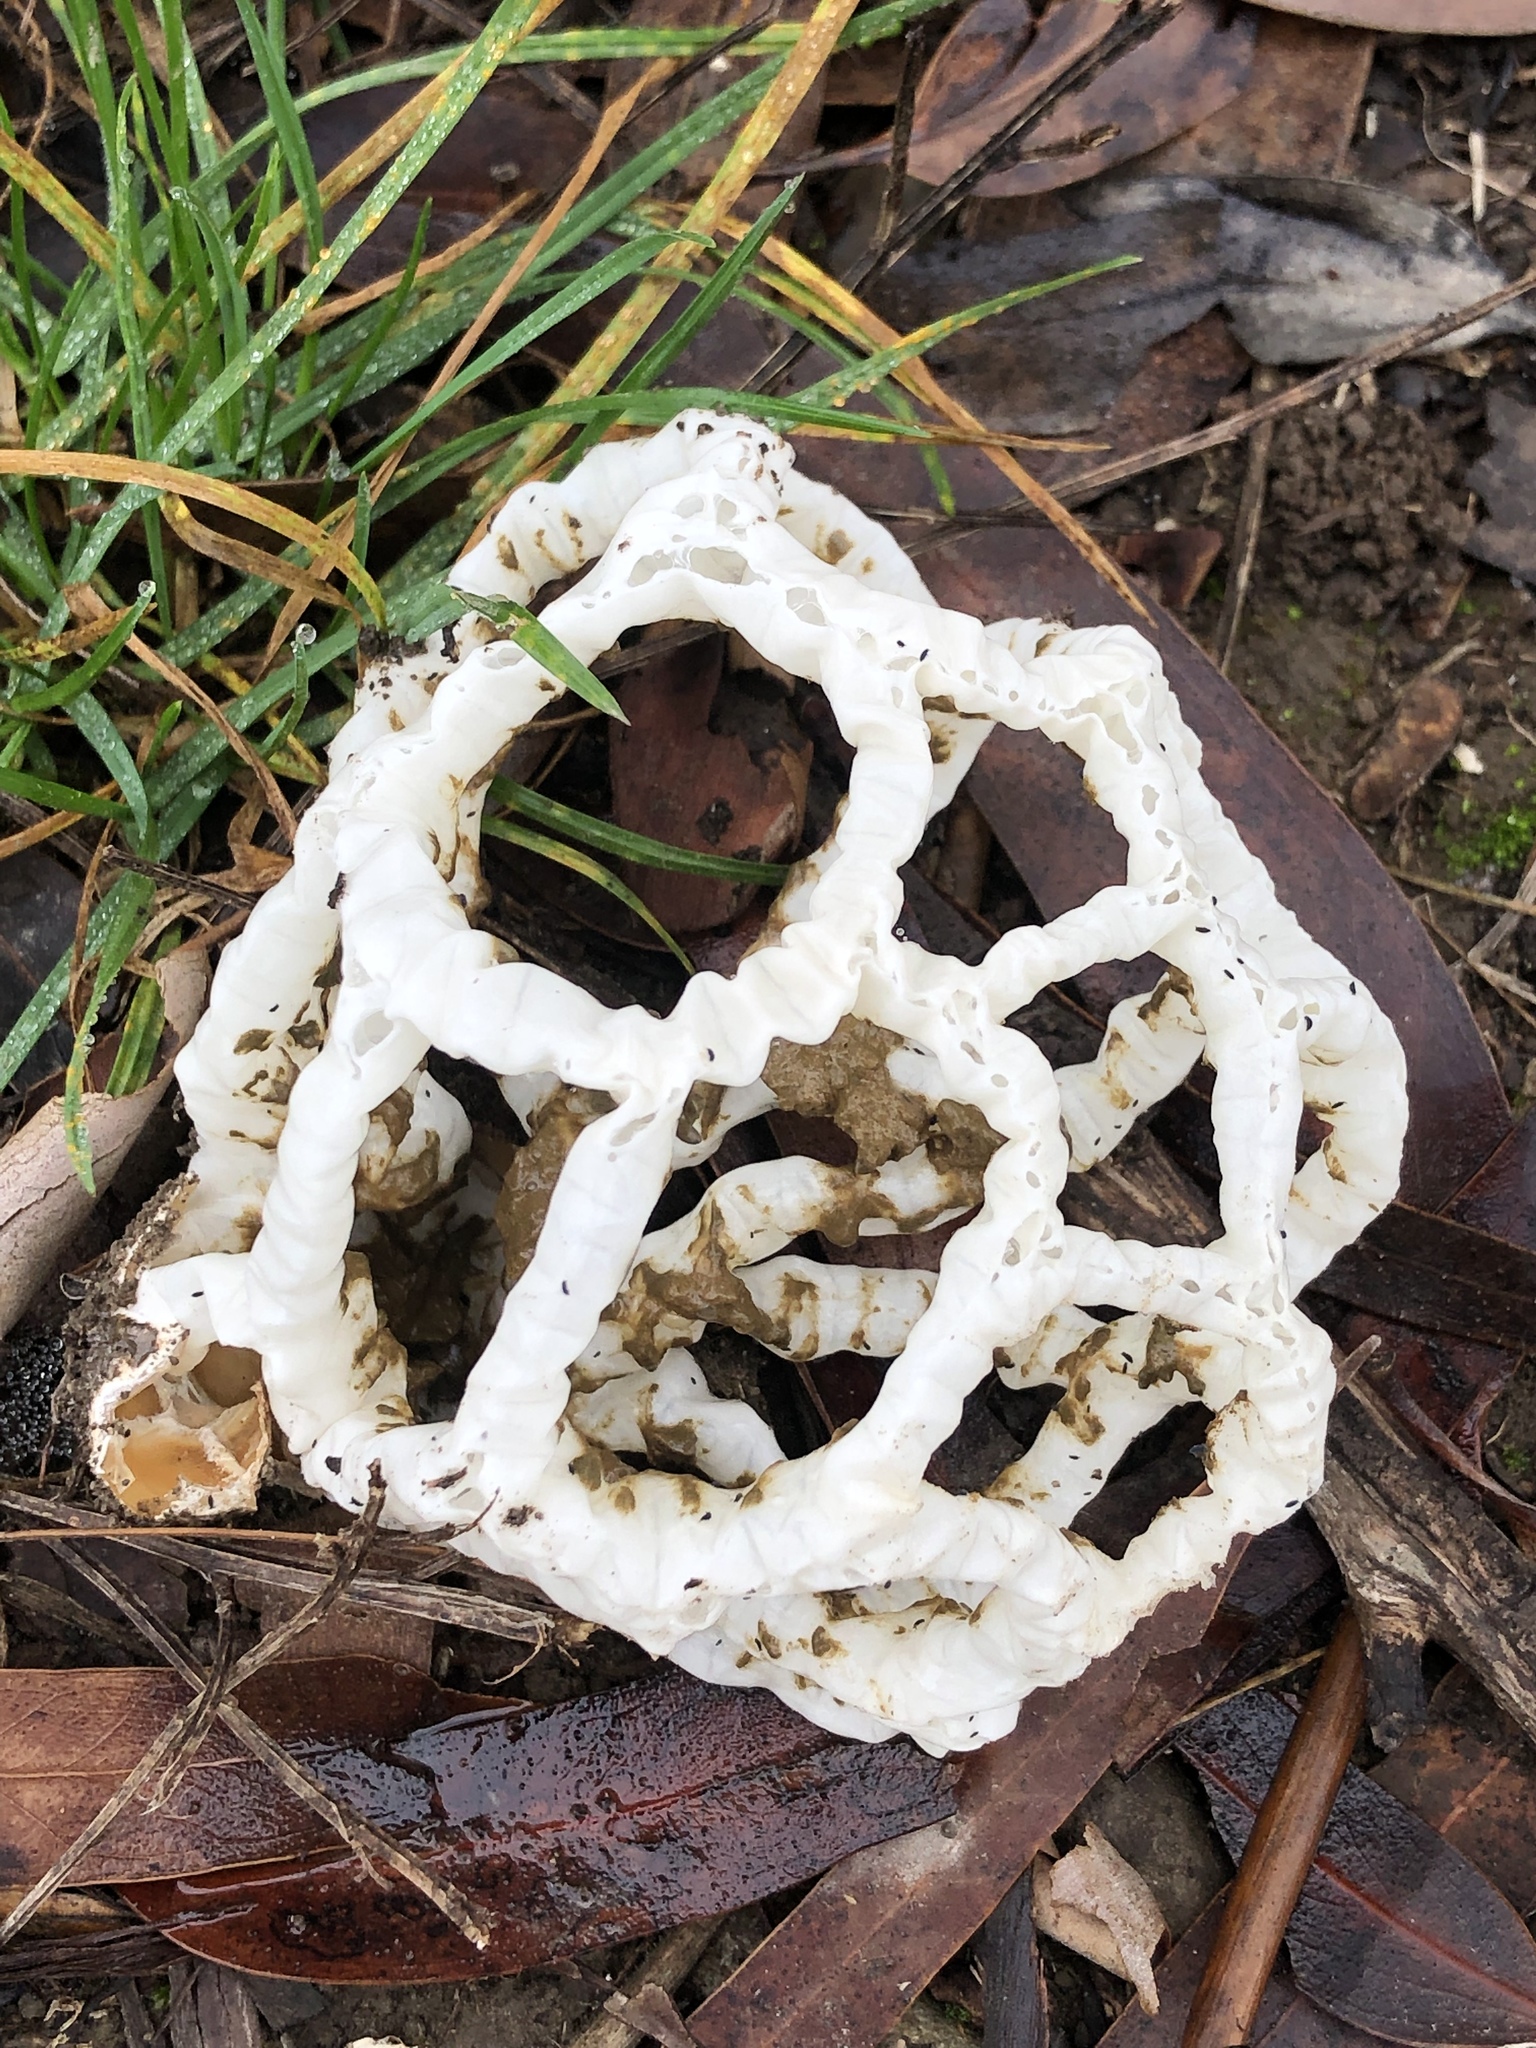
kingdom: Fungi
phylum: Basidiomycota
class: Agaricomycetes
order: Phallales
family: Phallaceae
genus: Ileodictyon
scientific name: Ileodictyon cibarium
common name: Basket fungus
